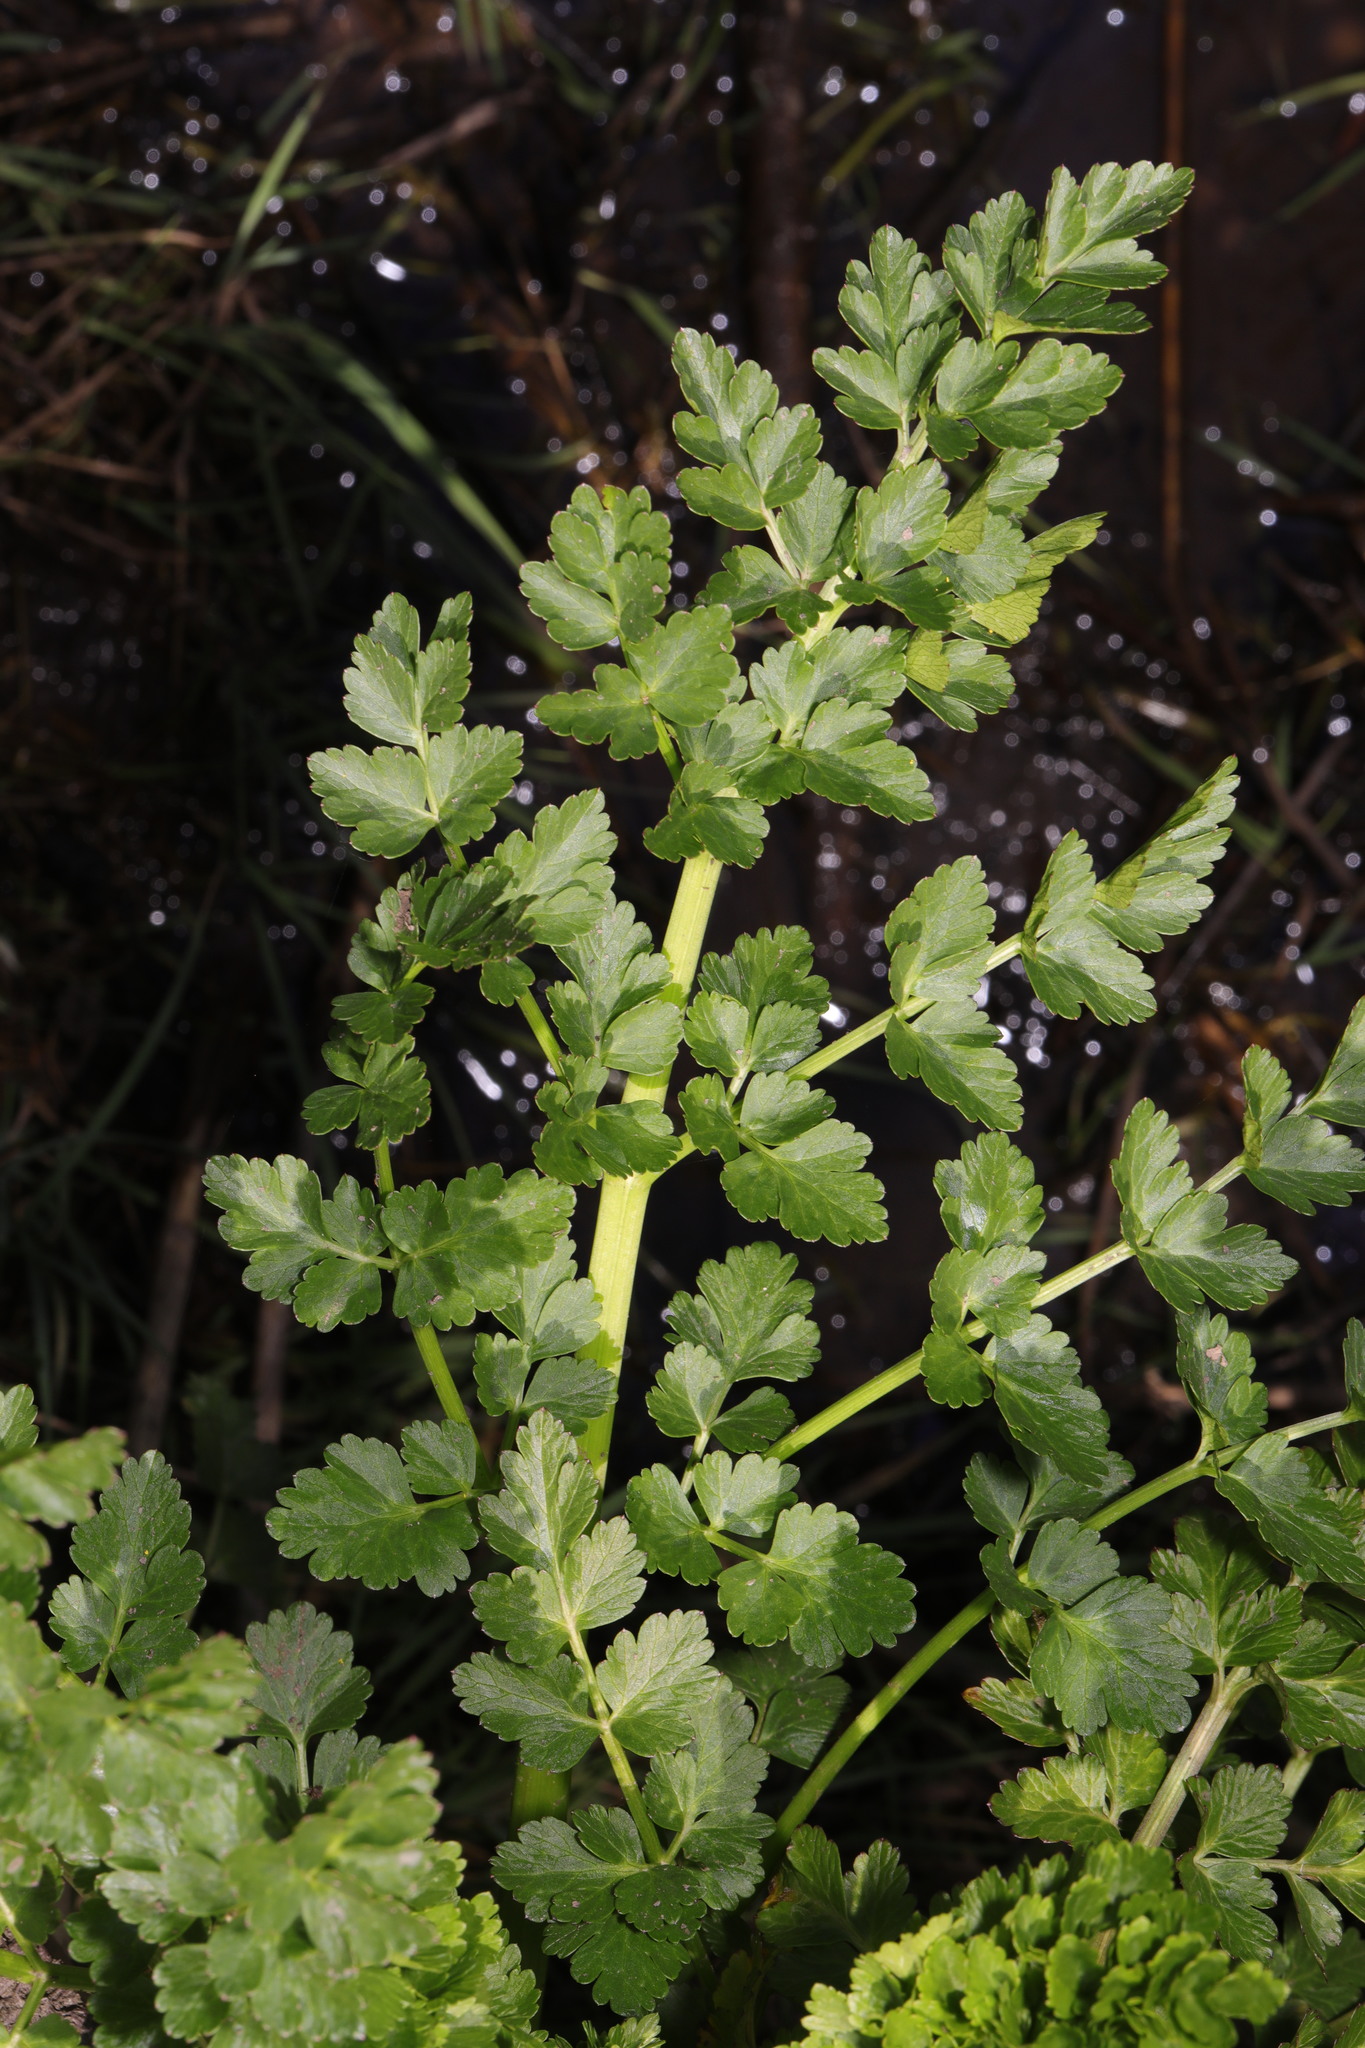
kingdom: Plantae
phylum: Tracheophyta
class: Magnoliopsida
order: Apiales
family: Apiaceae
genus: Oenanthe
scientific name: Oenanthe crocata
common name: Hemlock water-dropwort
